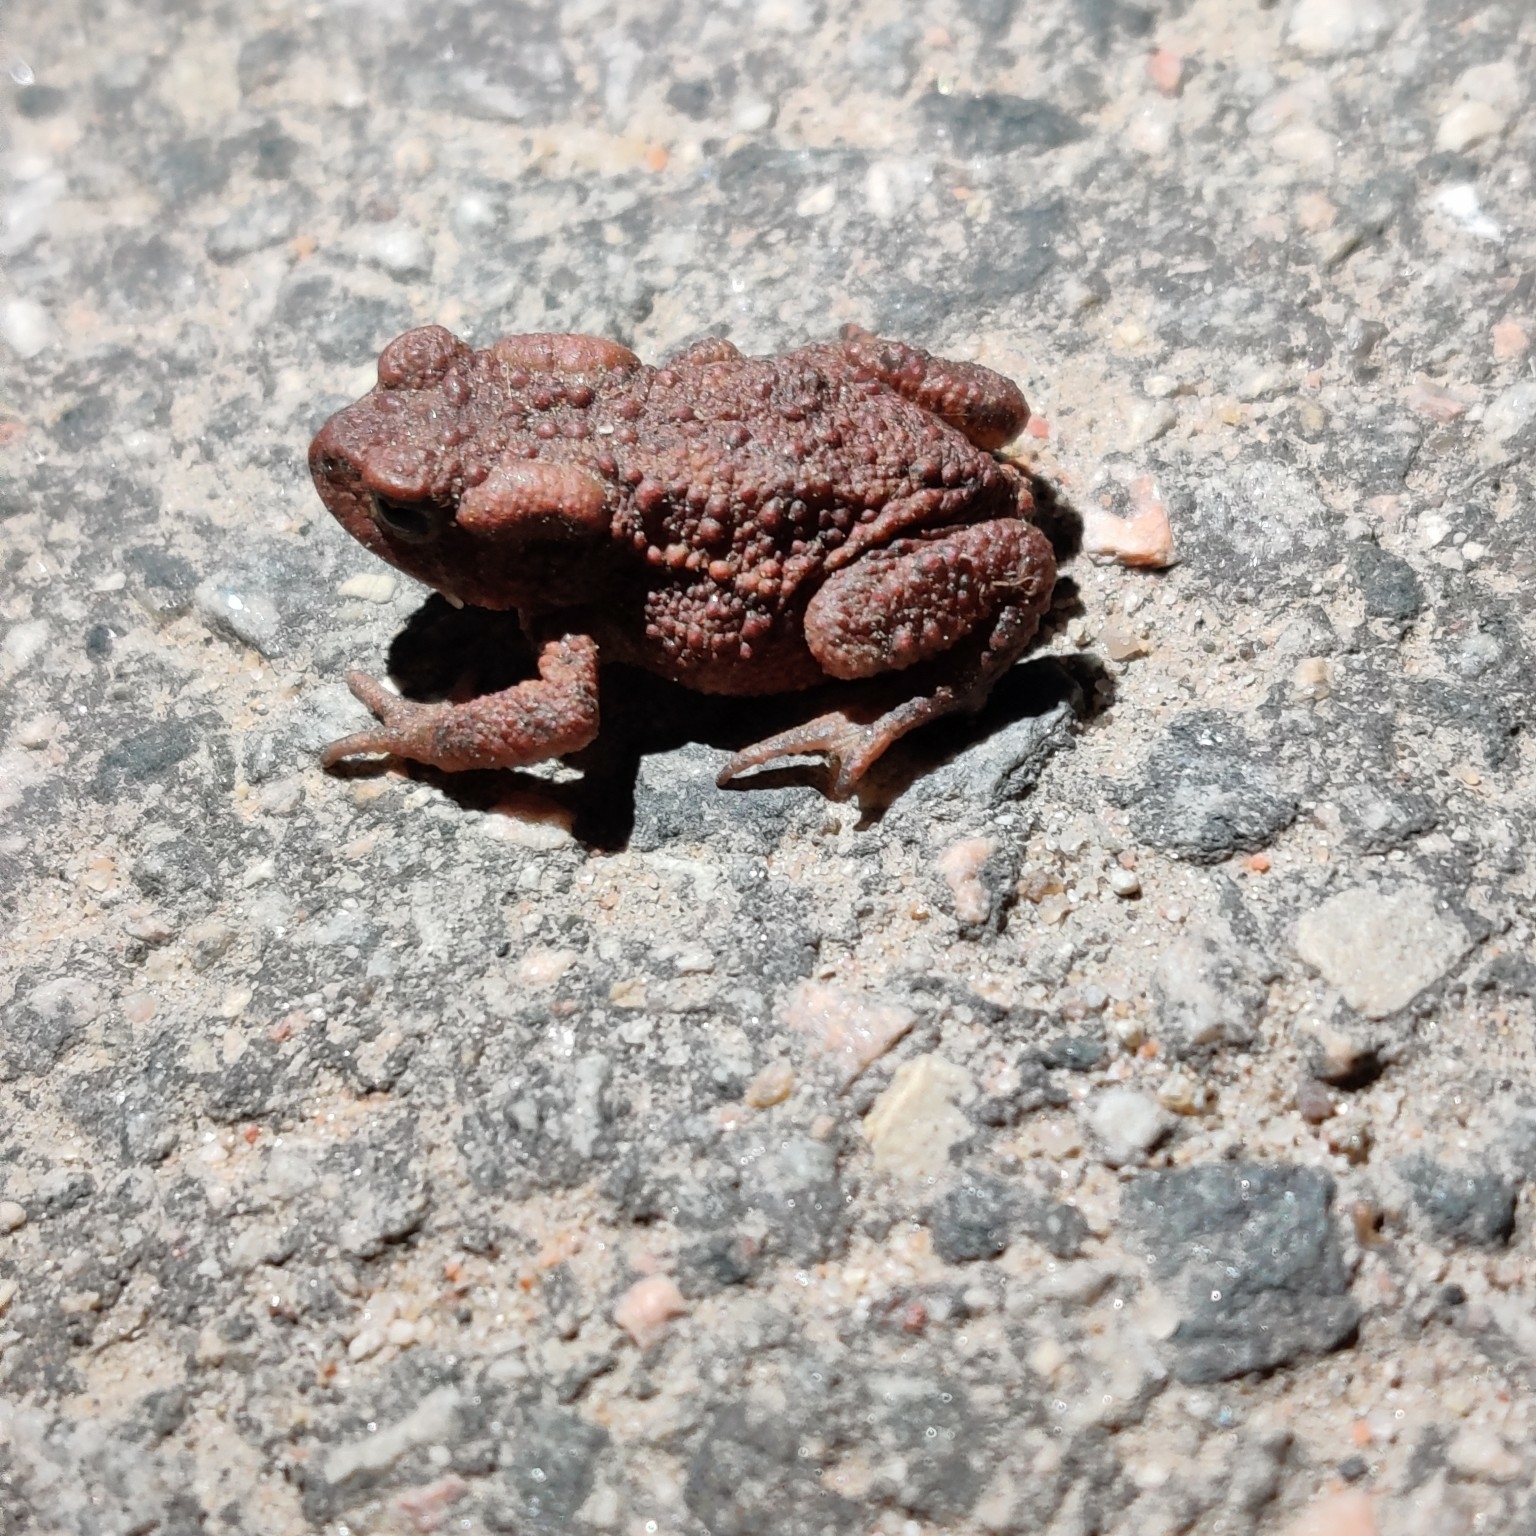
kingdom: Animalia
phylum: Chordata
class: Amphibia
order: Anura
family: Bufonidae
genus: Bufo
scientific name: Bufo bufo
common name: Common toad
